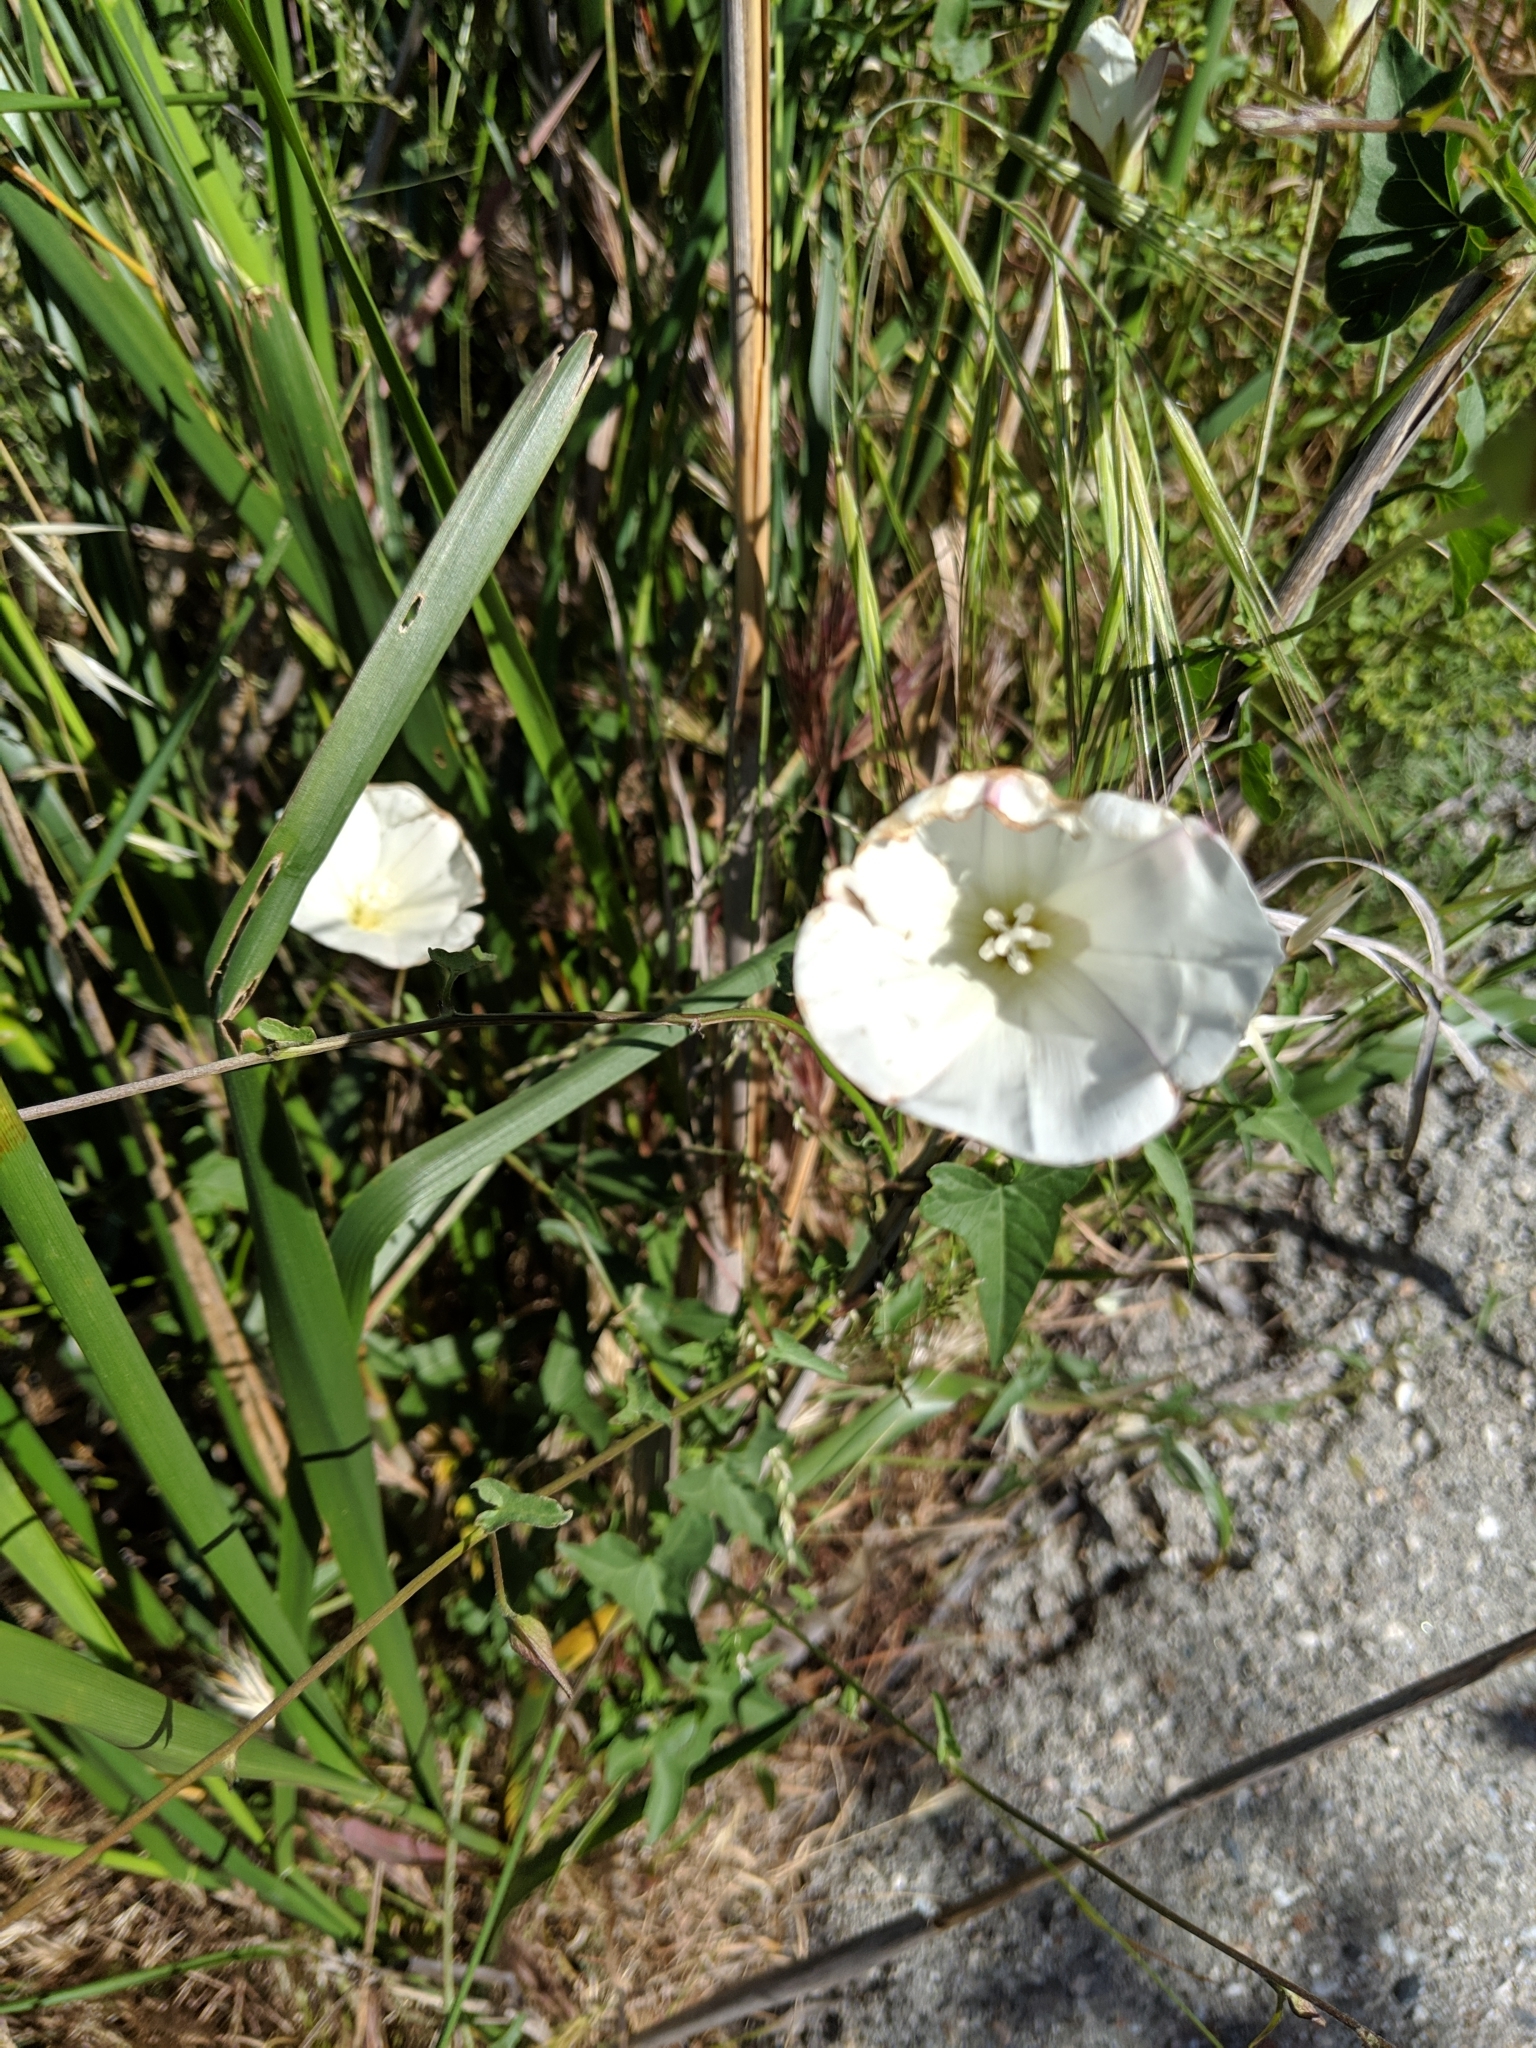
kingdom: Plantae
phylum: Tracheophyta
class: Magnoliopsida
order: Solanales
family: Convolvulaceae
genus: Convolvulus
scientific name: Convolvulus arvensis
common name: Field bindweed
